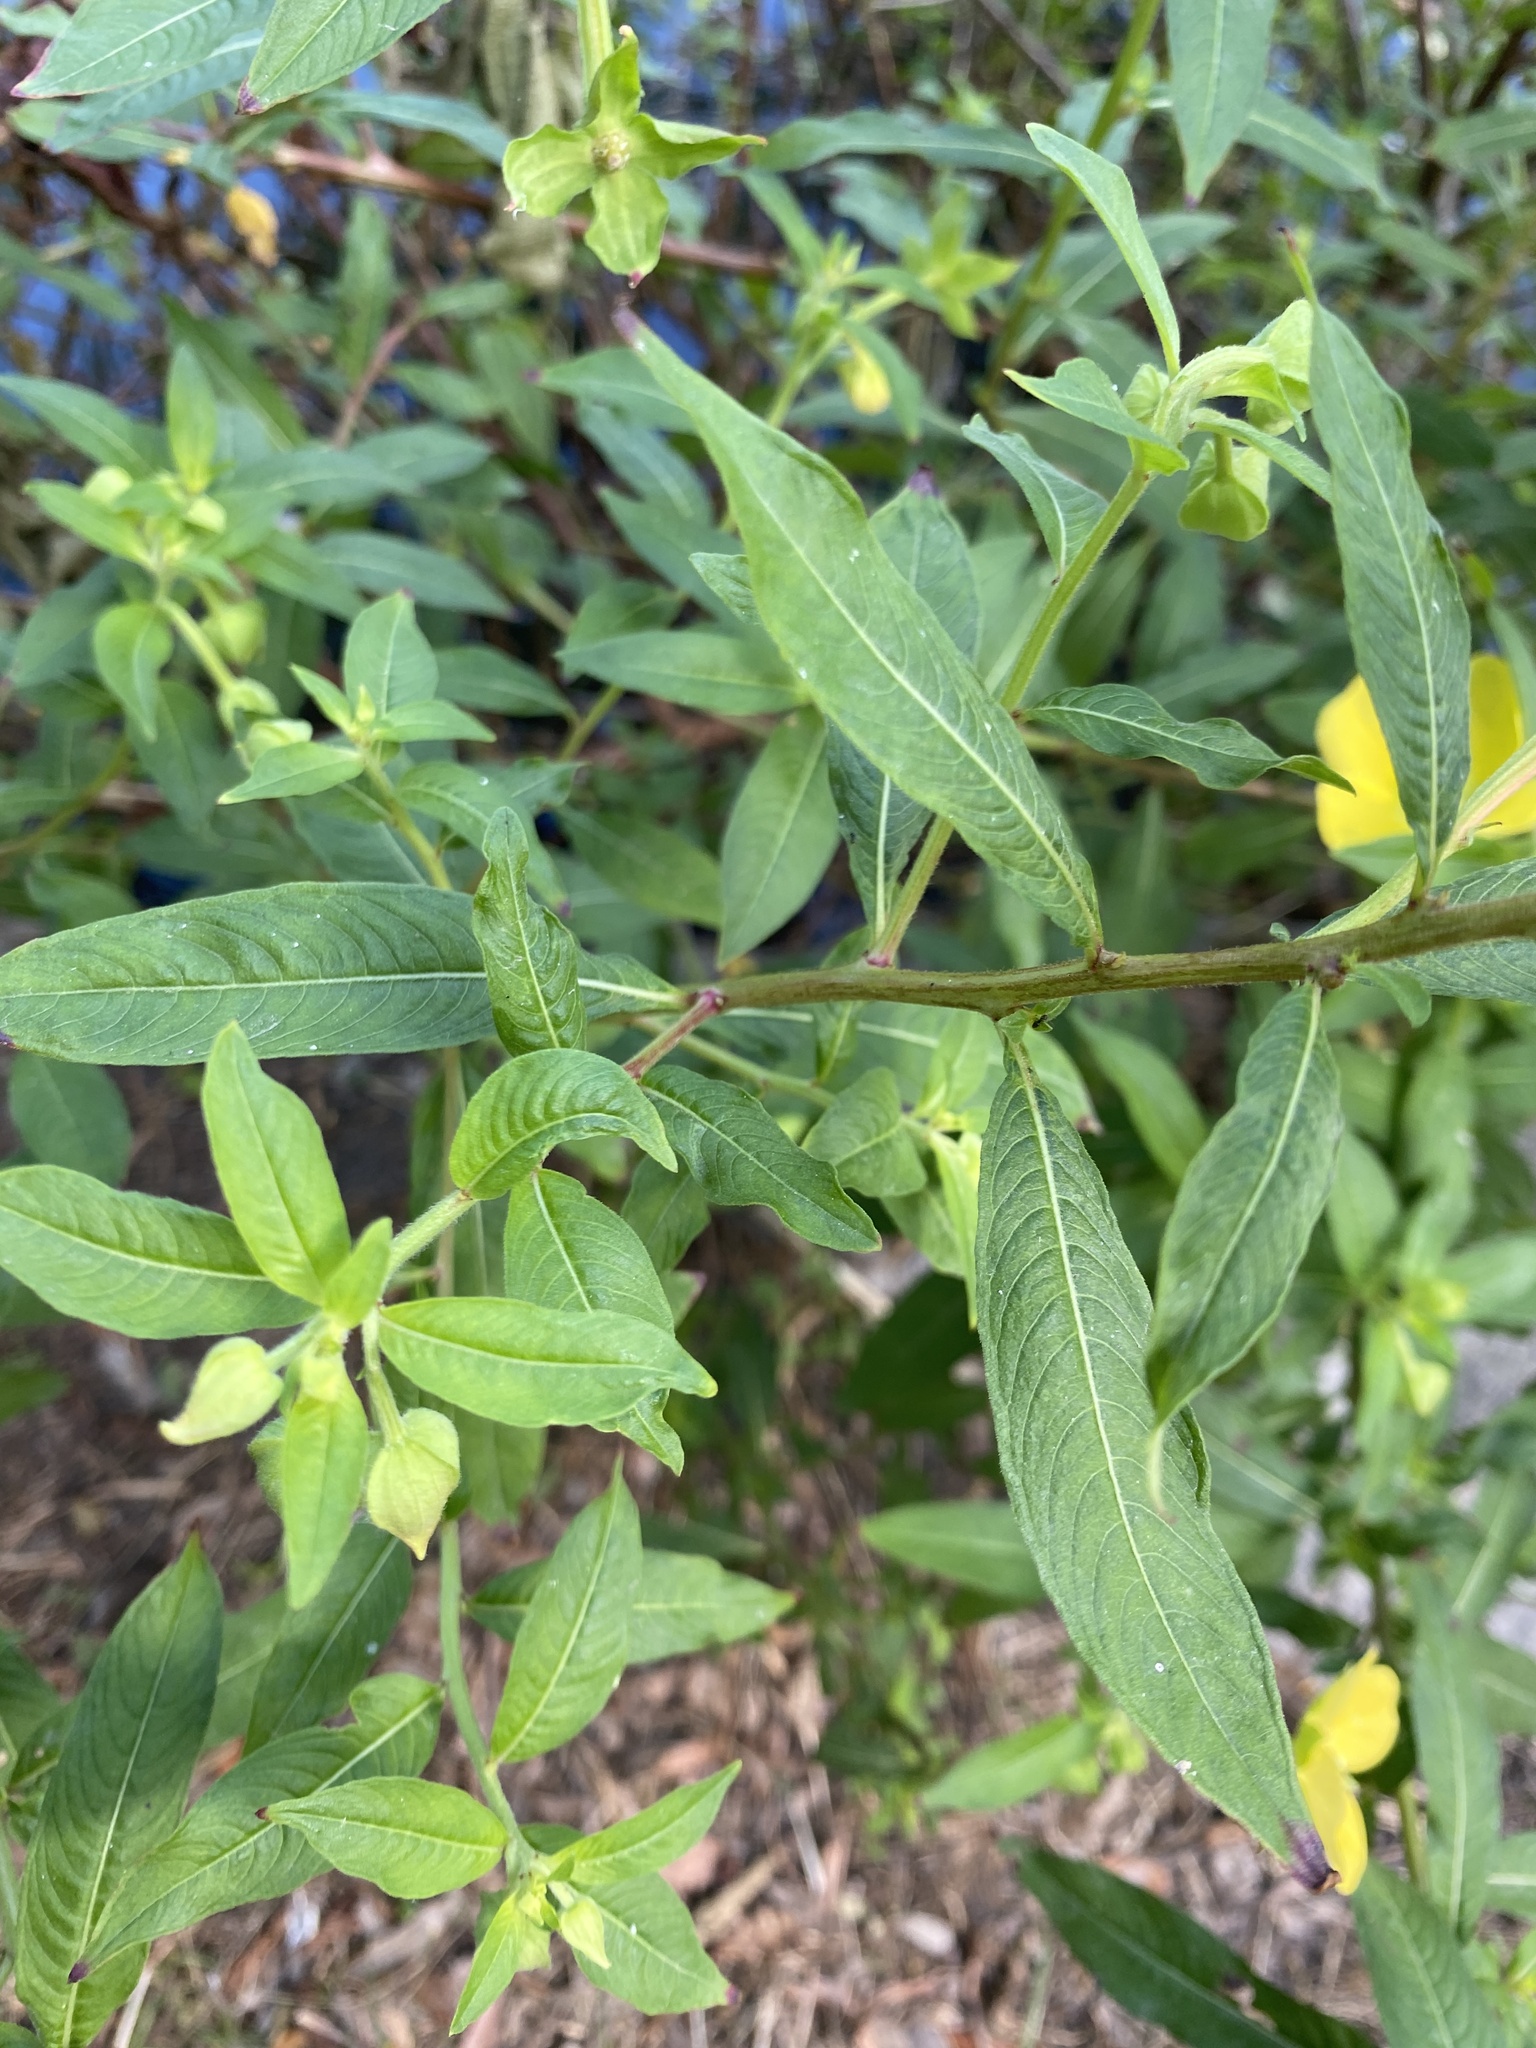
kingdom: Plantae
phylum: Tracheophyta
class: Magnoliopsida
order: Myrtales
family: Onagraceae
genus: Ludwigia
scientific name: Ludwigia octovalvis
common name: Water-primrose
